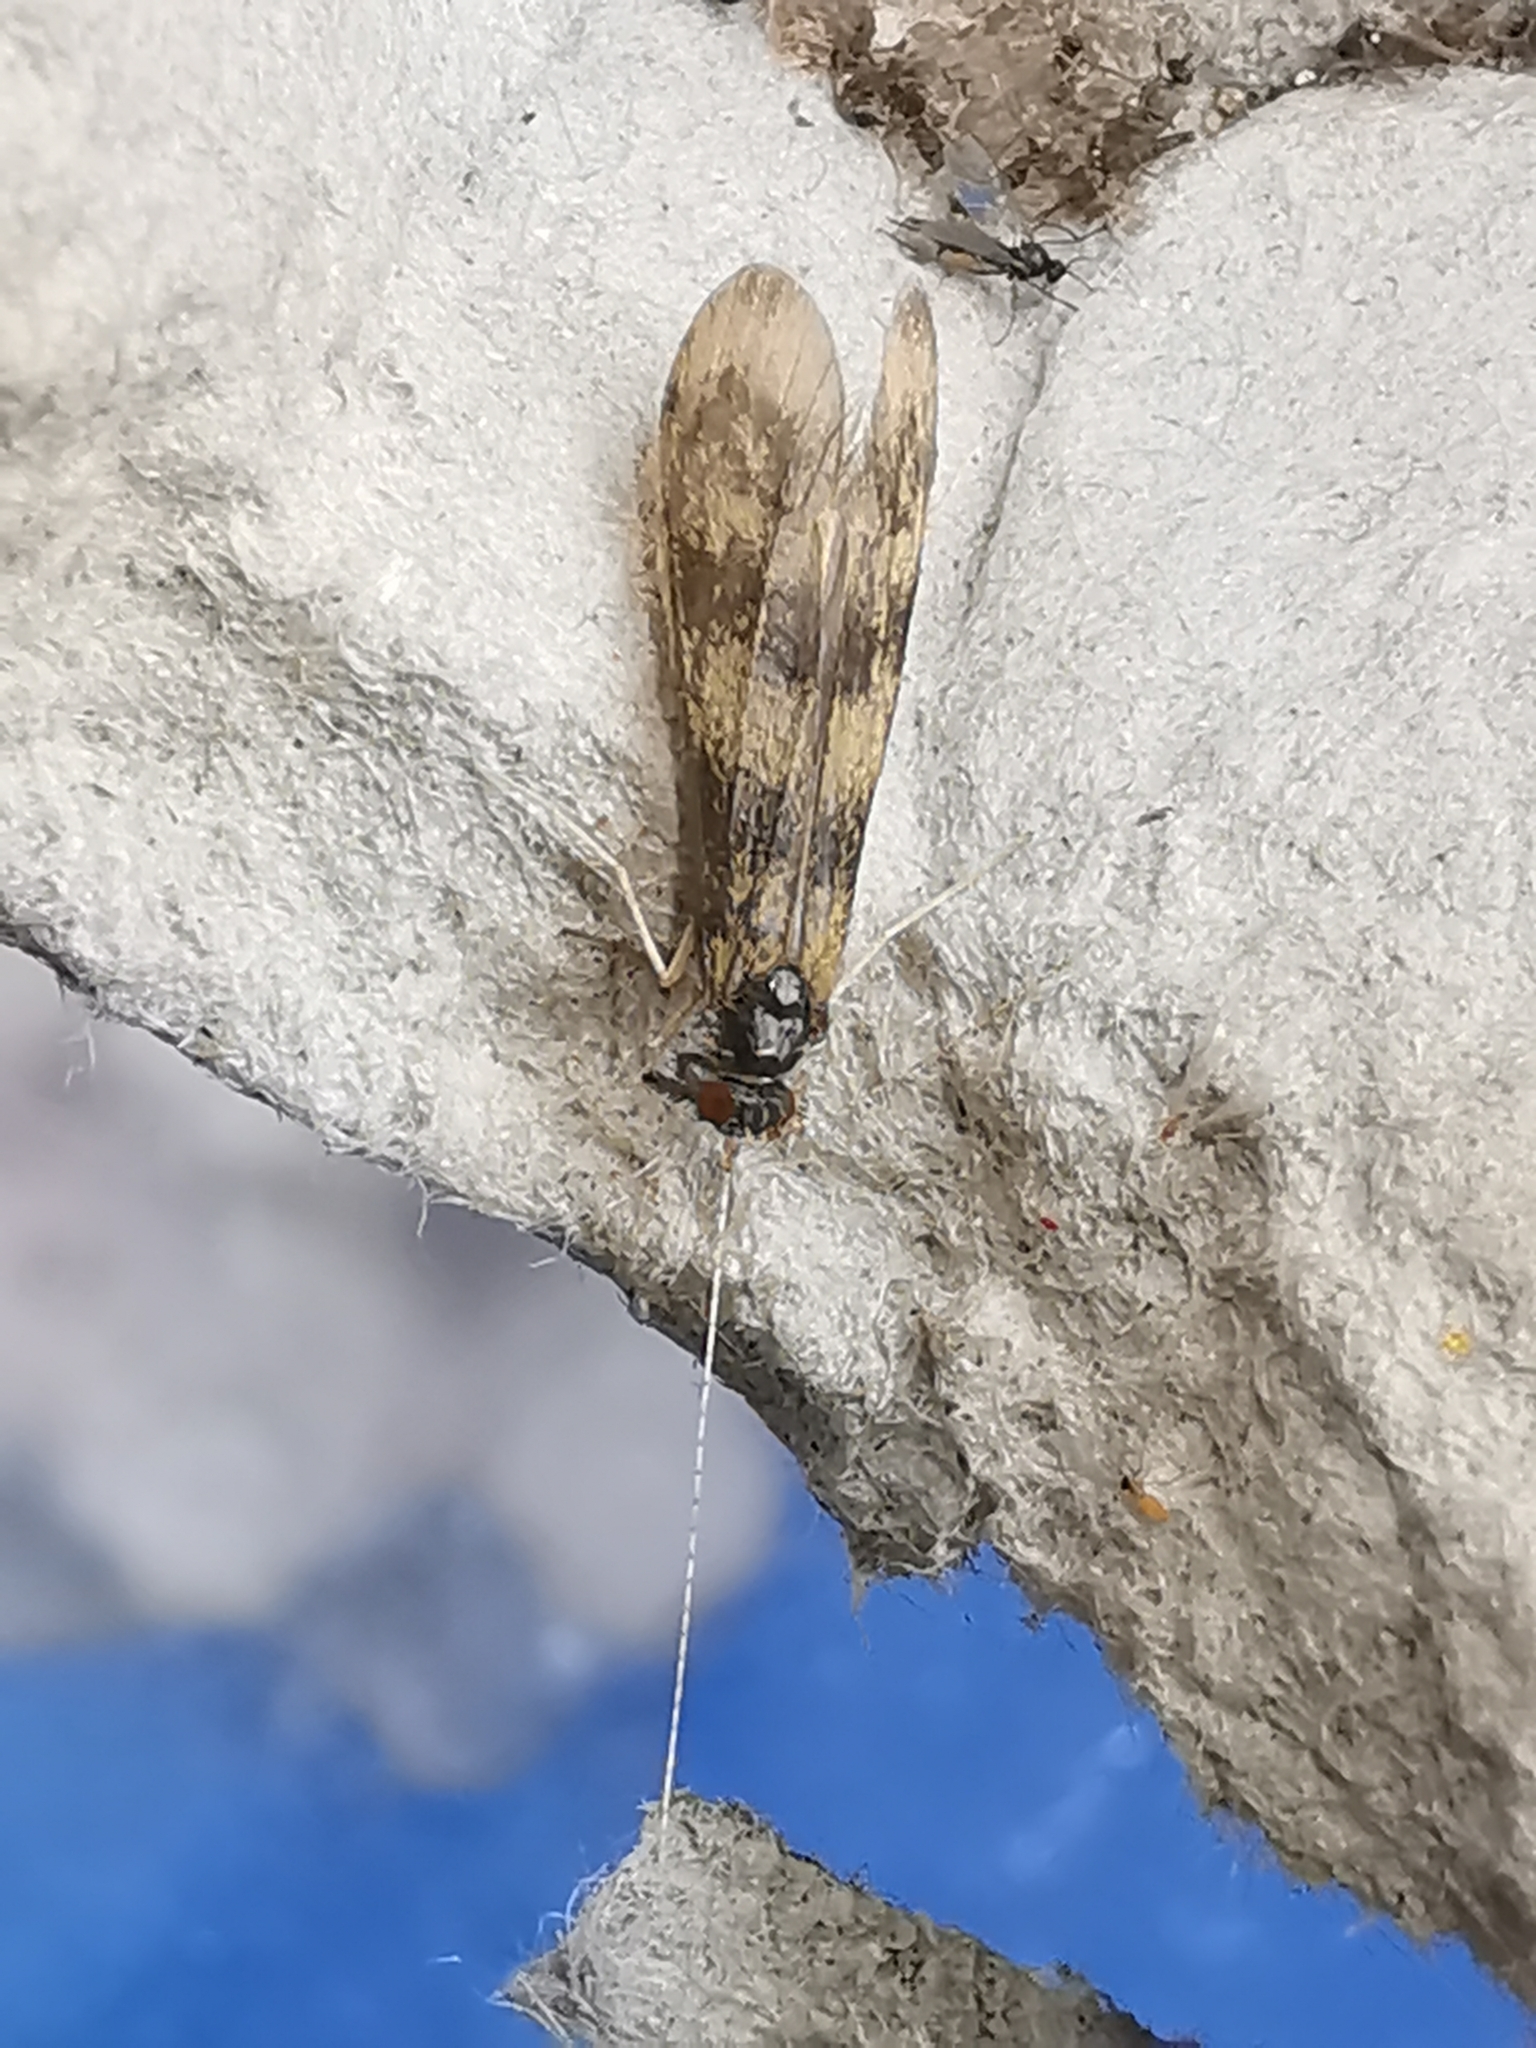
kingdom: Animalia
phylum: Arthropoda
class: Insecta
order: Trichoptera
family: Leptoceridae
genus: Mystacides
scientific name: Mystacides longicornis
